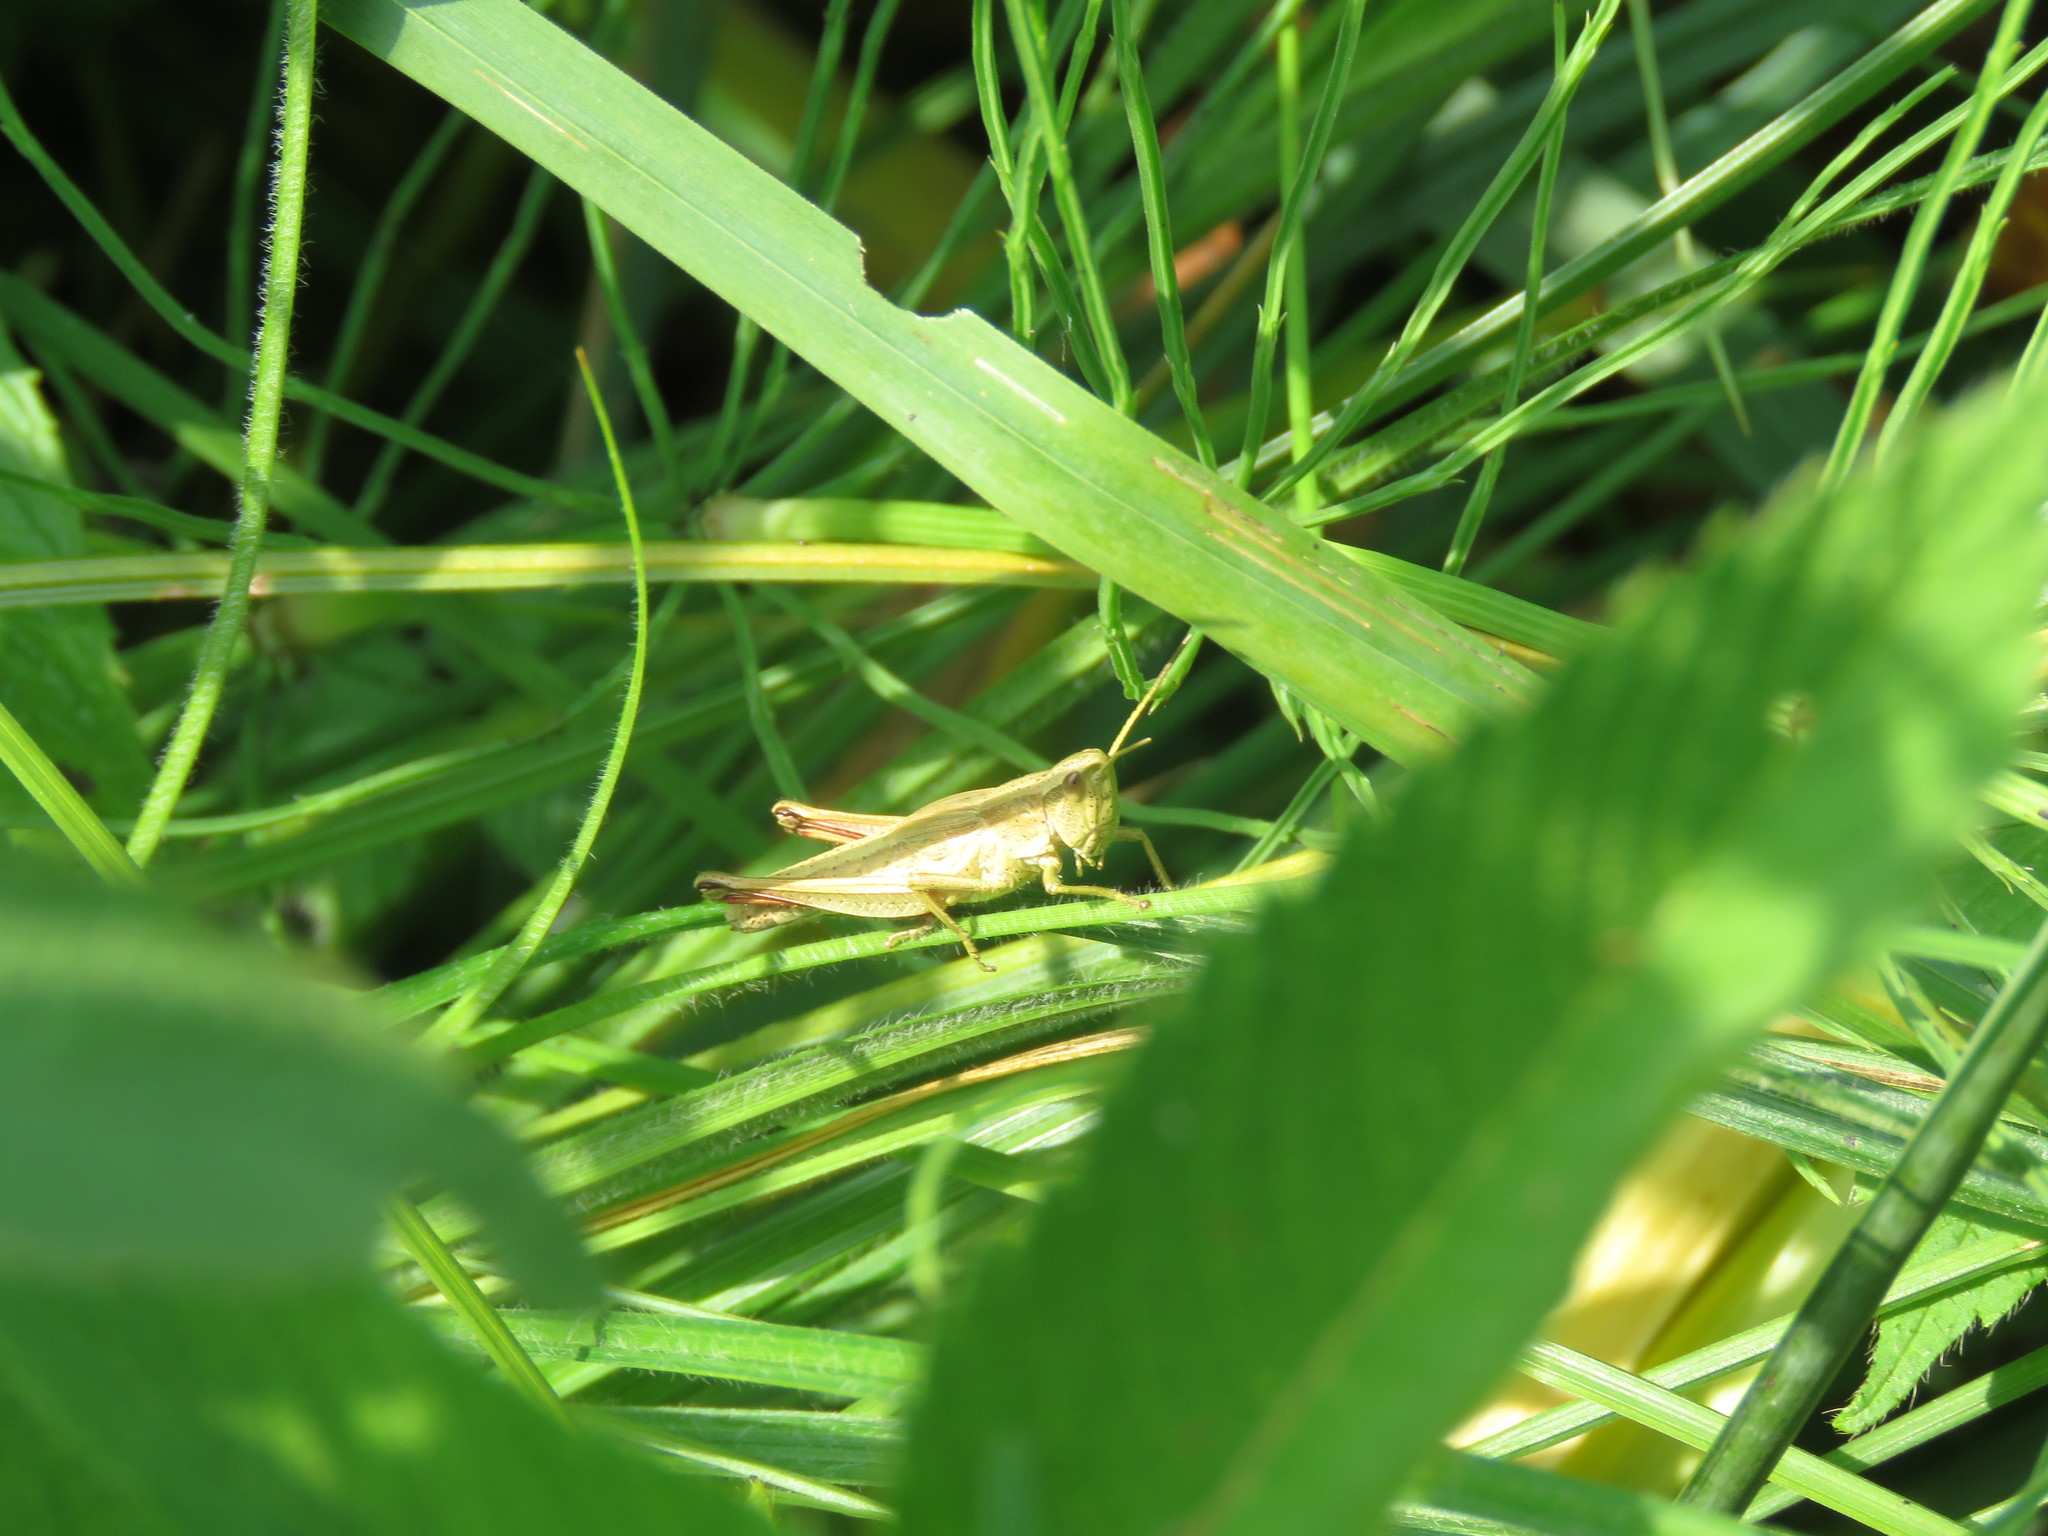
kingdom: Animalia
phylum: Arthropoda
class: Insecta
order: Orthoptera
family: Acrididae
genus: Chrysochraon
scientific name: Chrysochraon dispar
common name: Large gold grasshopper
